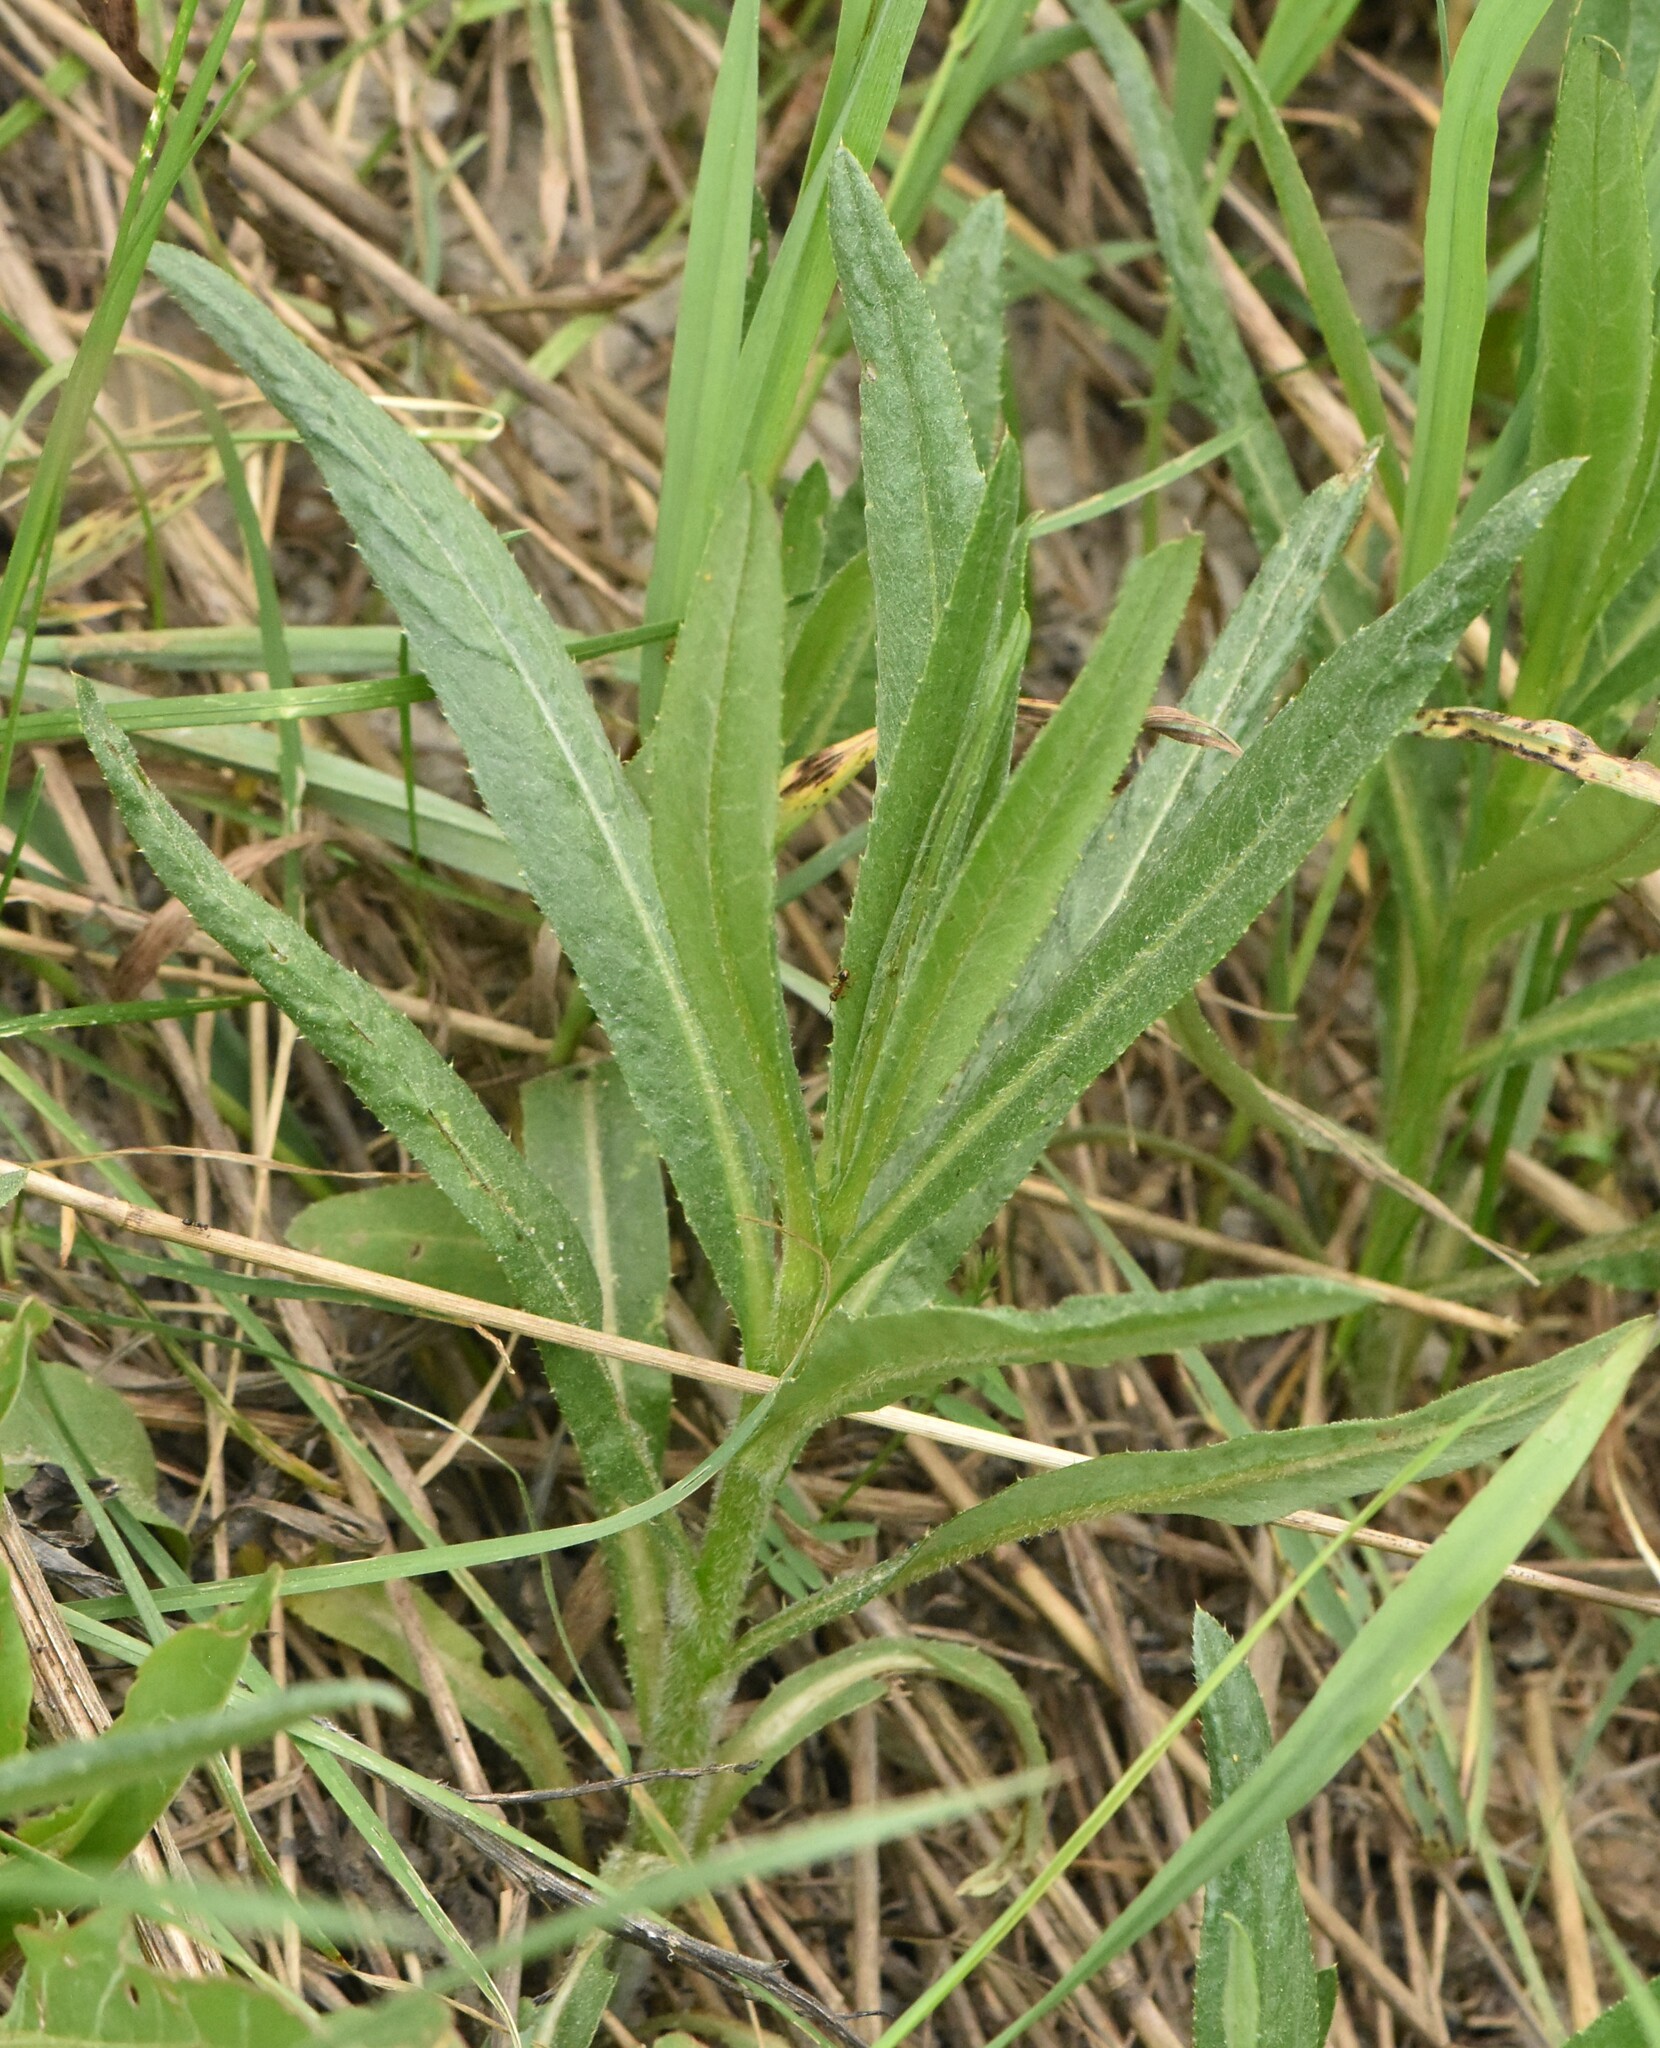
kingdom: Plantae
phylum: Tracheophyta
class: Magnoliopsida
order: Asterales
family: Asteraceae
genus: Cirsium
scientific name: Cirsium arvense
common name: Creeping thistle
